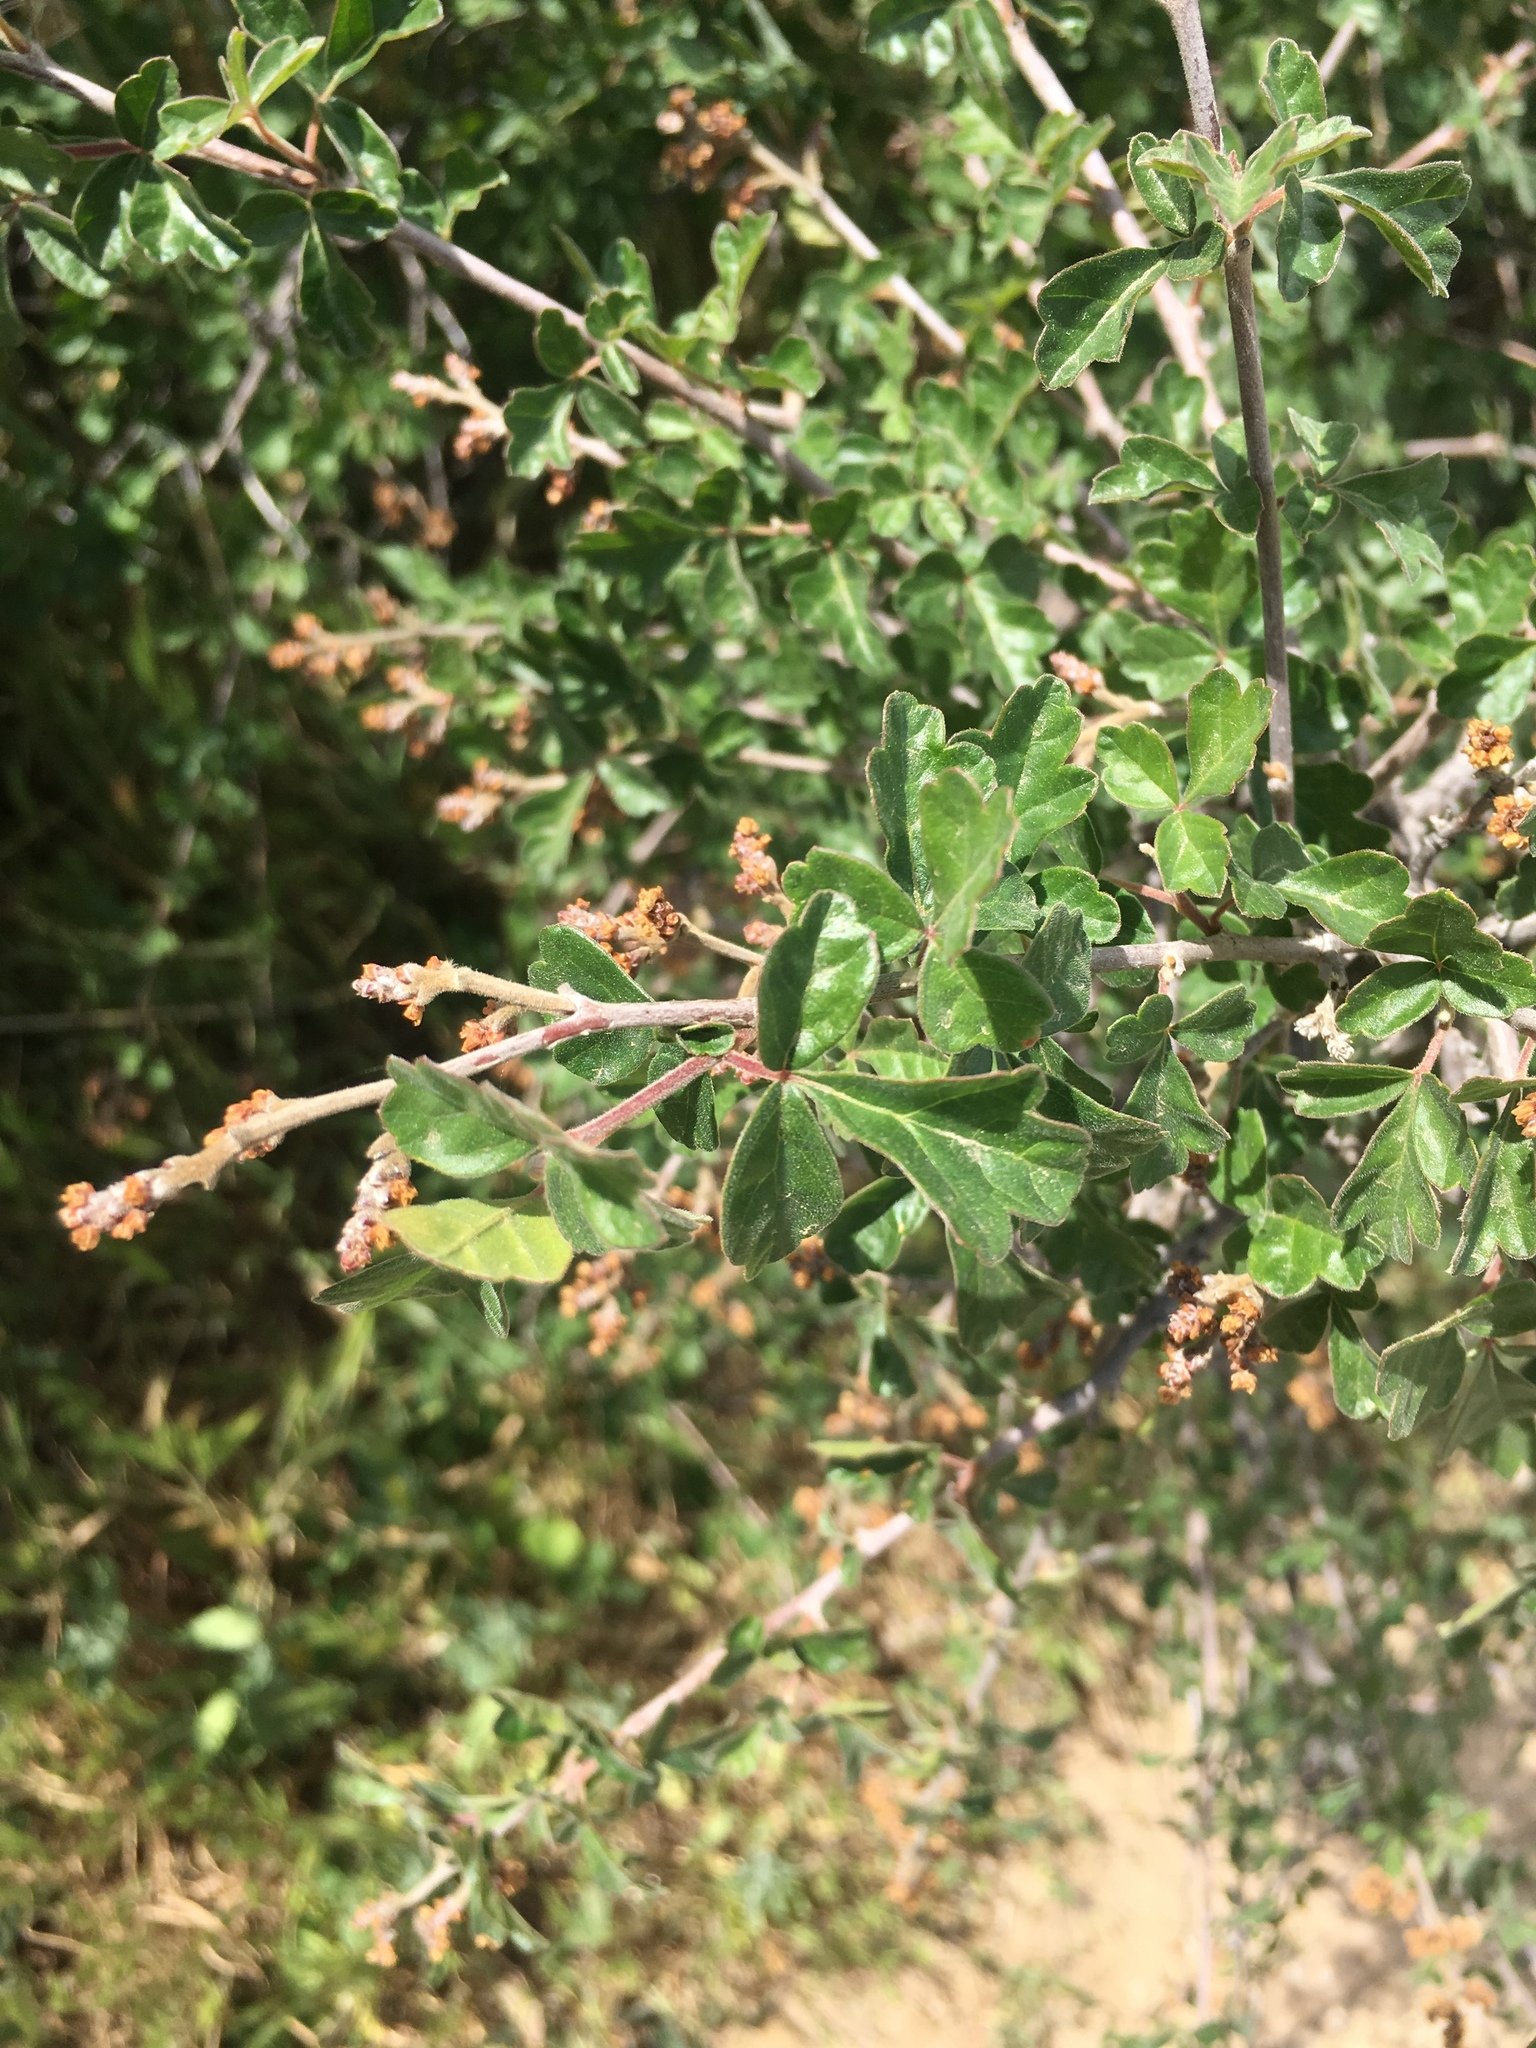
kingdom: Plantae
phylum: Tracheophyta
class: Magnoliopsida
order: Sapindales
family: Anacardiaceae
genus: Rhus
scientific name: Rhus aromatica
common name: Aromatic sumac
